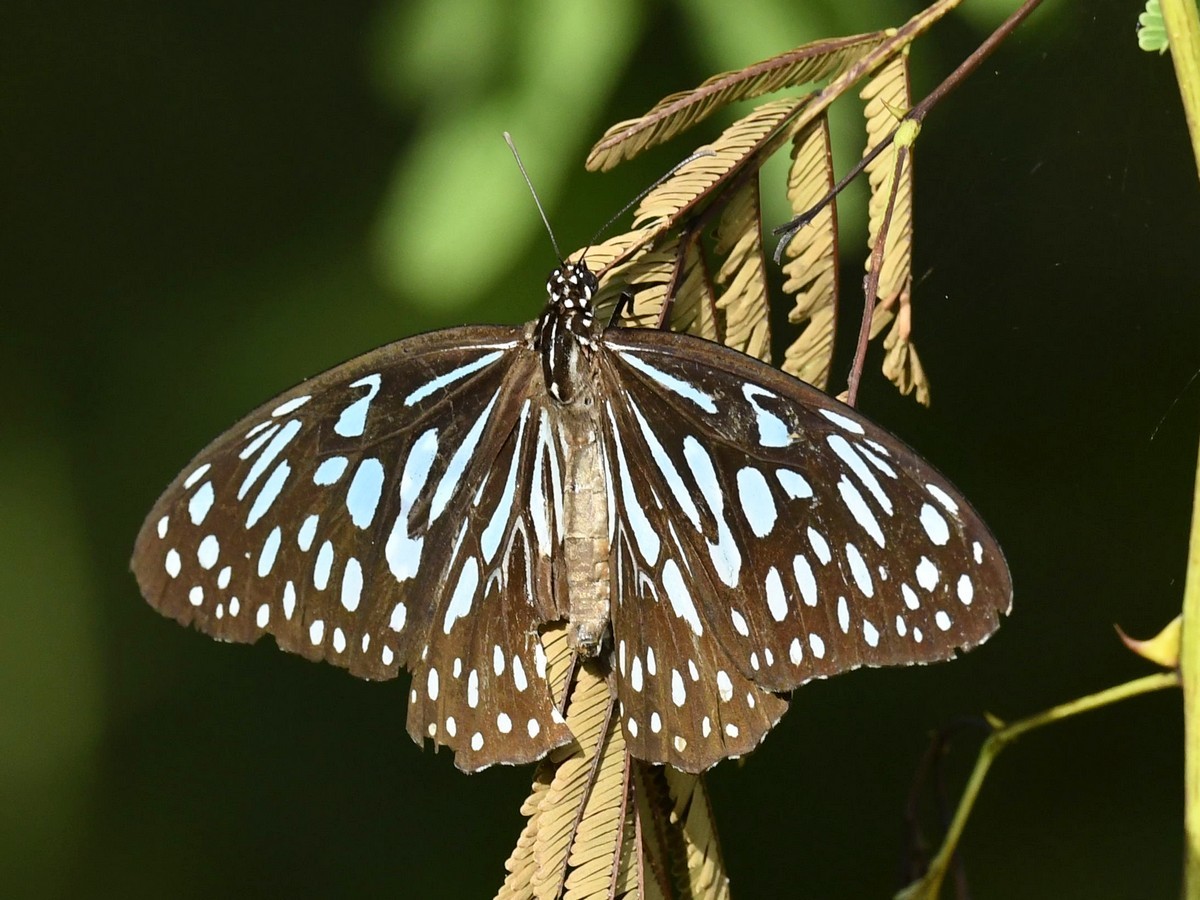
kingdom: Animalia
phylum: Arthropoda
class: Insecta
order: Lepidoptera
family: Nymphalidae
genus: Tirumala
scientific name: Tirumala septentrionis
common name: Dark blue tiger butterfly
